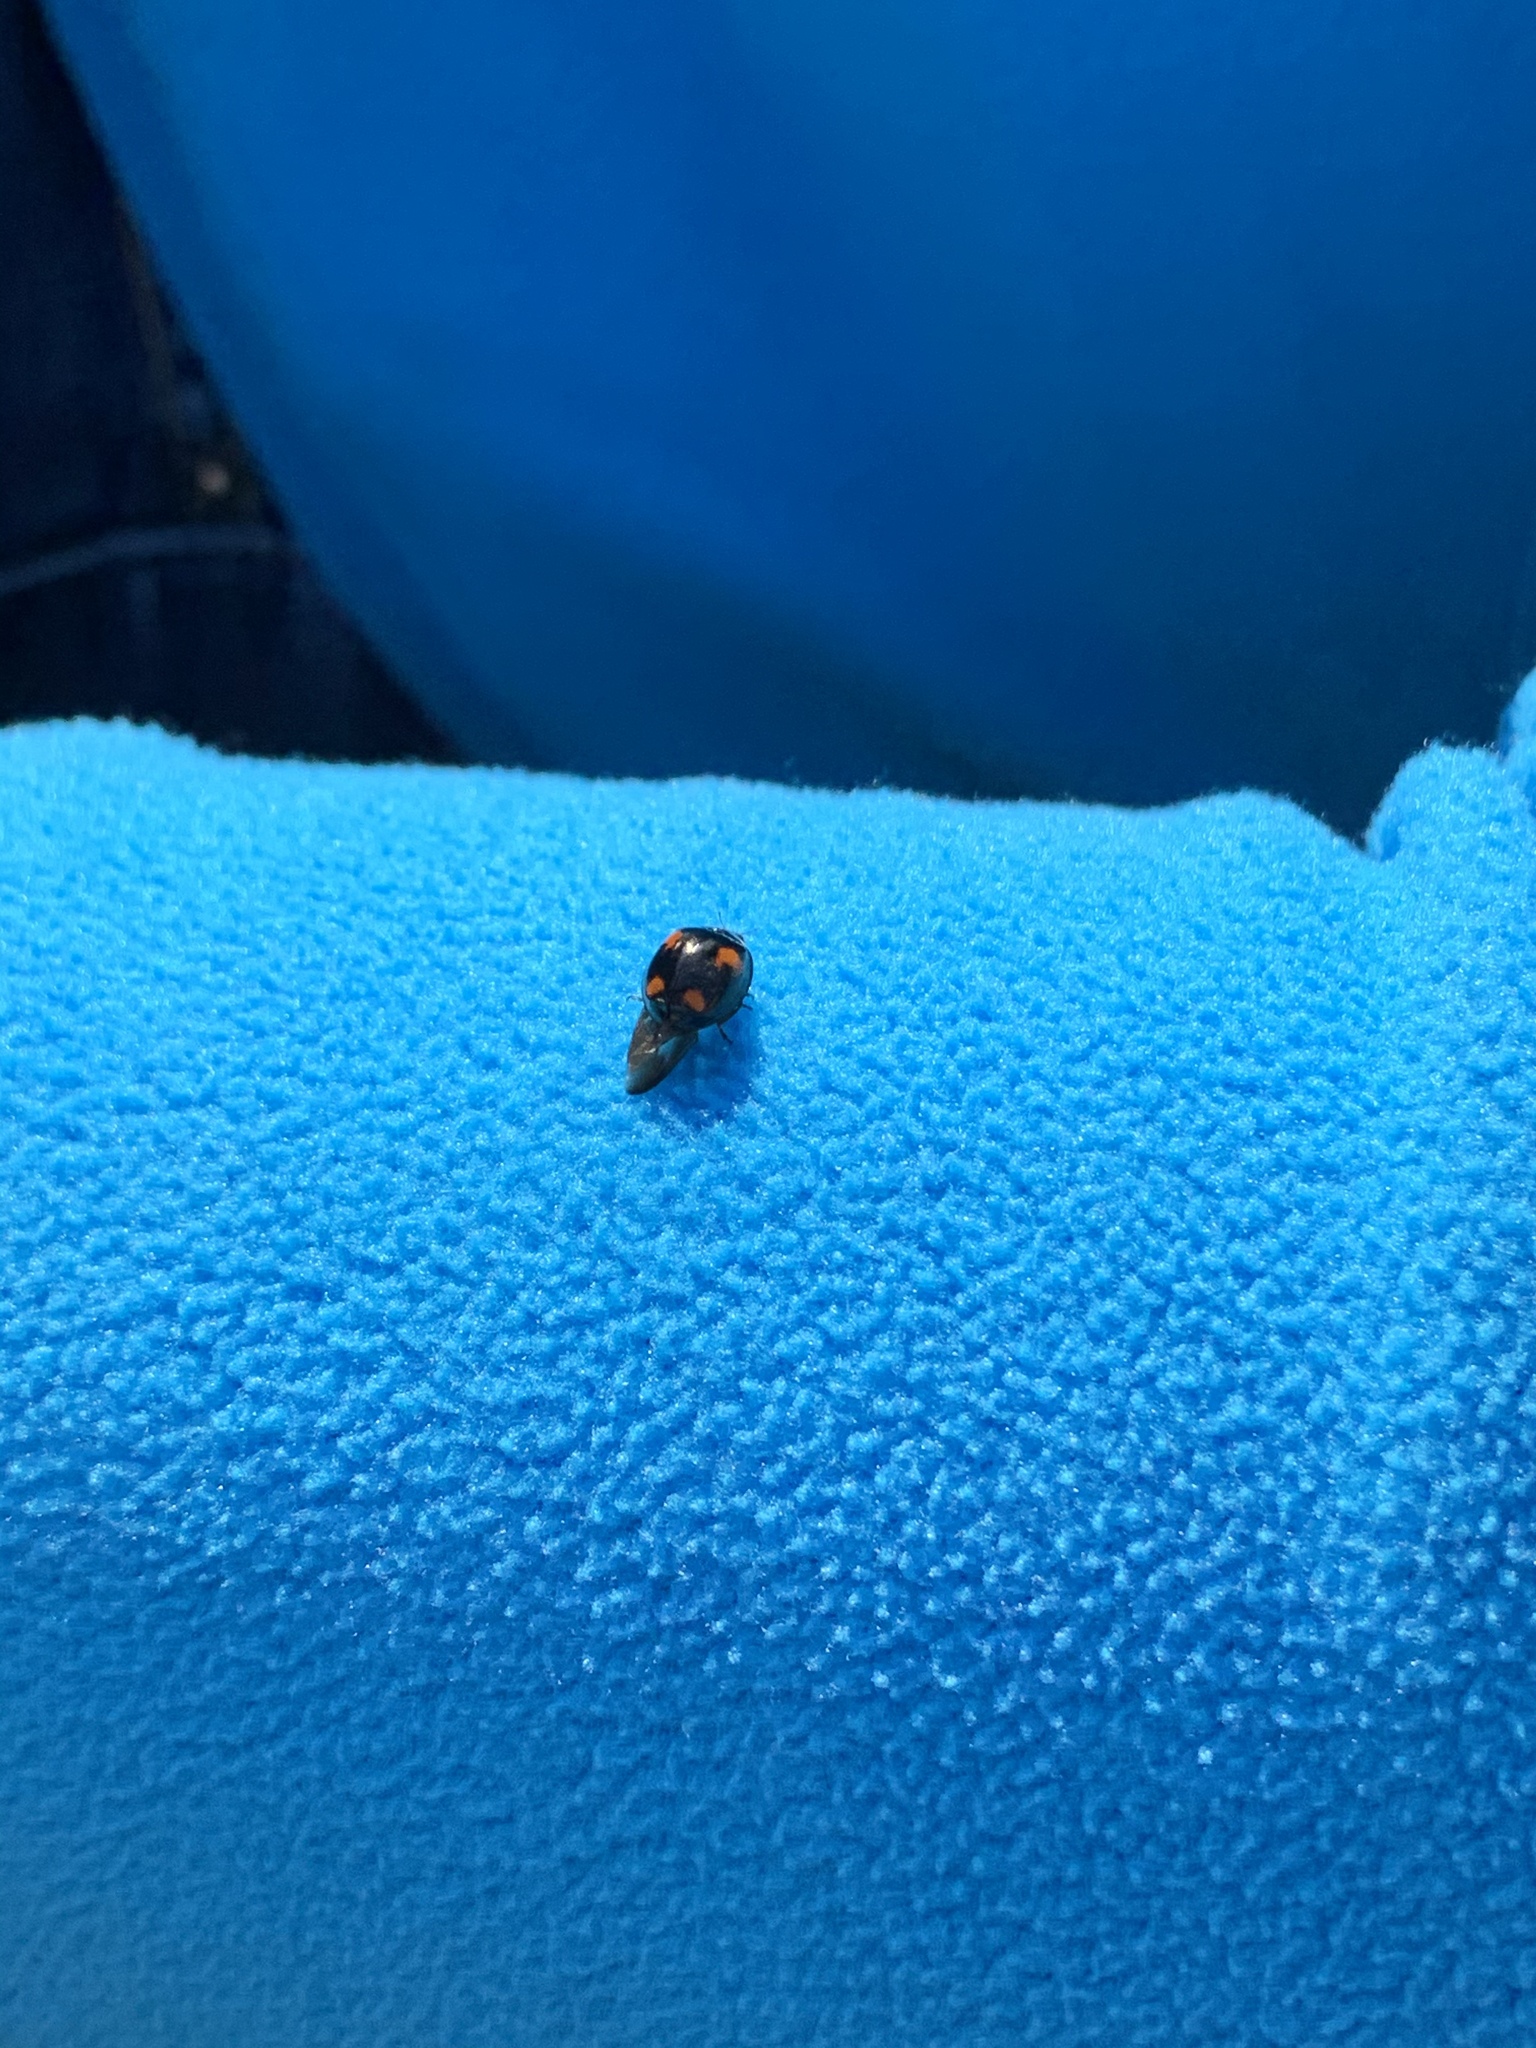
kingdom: Animalia
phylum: Arthropoda
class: Insecta
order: Coleoptera
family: Coccinellidae
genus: Harmonia
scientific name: Harmonia axyridis
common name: Harlequin ladybird
